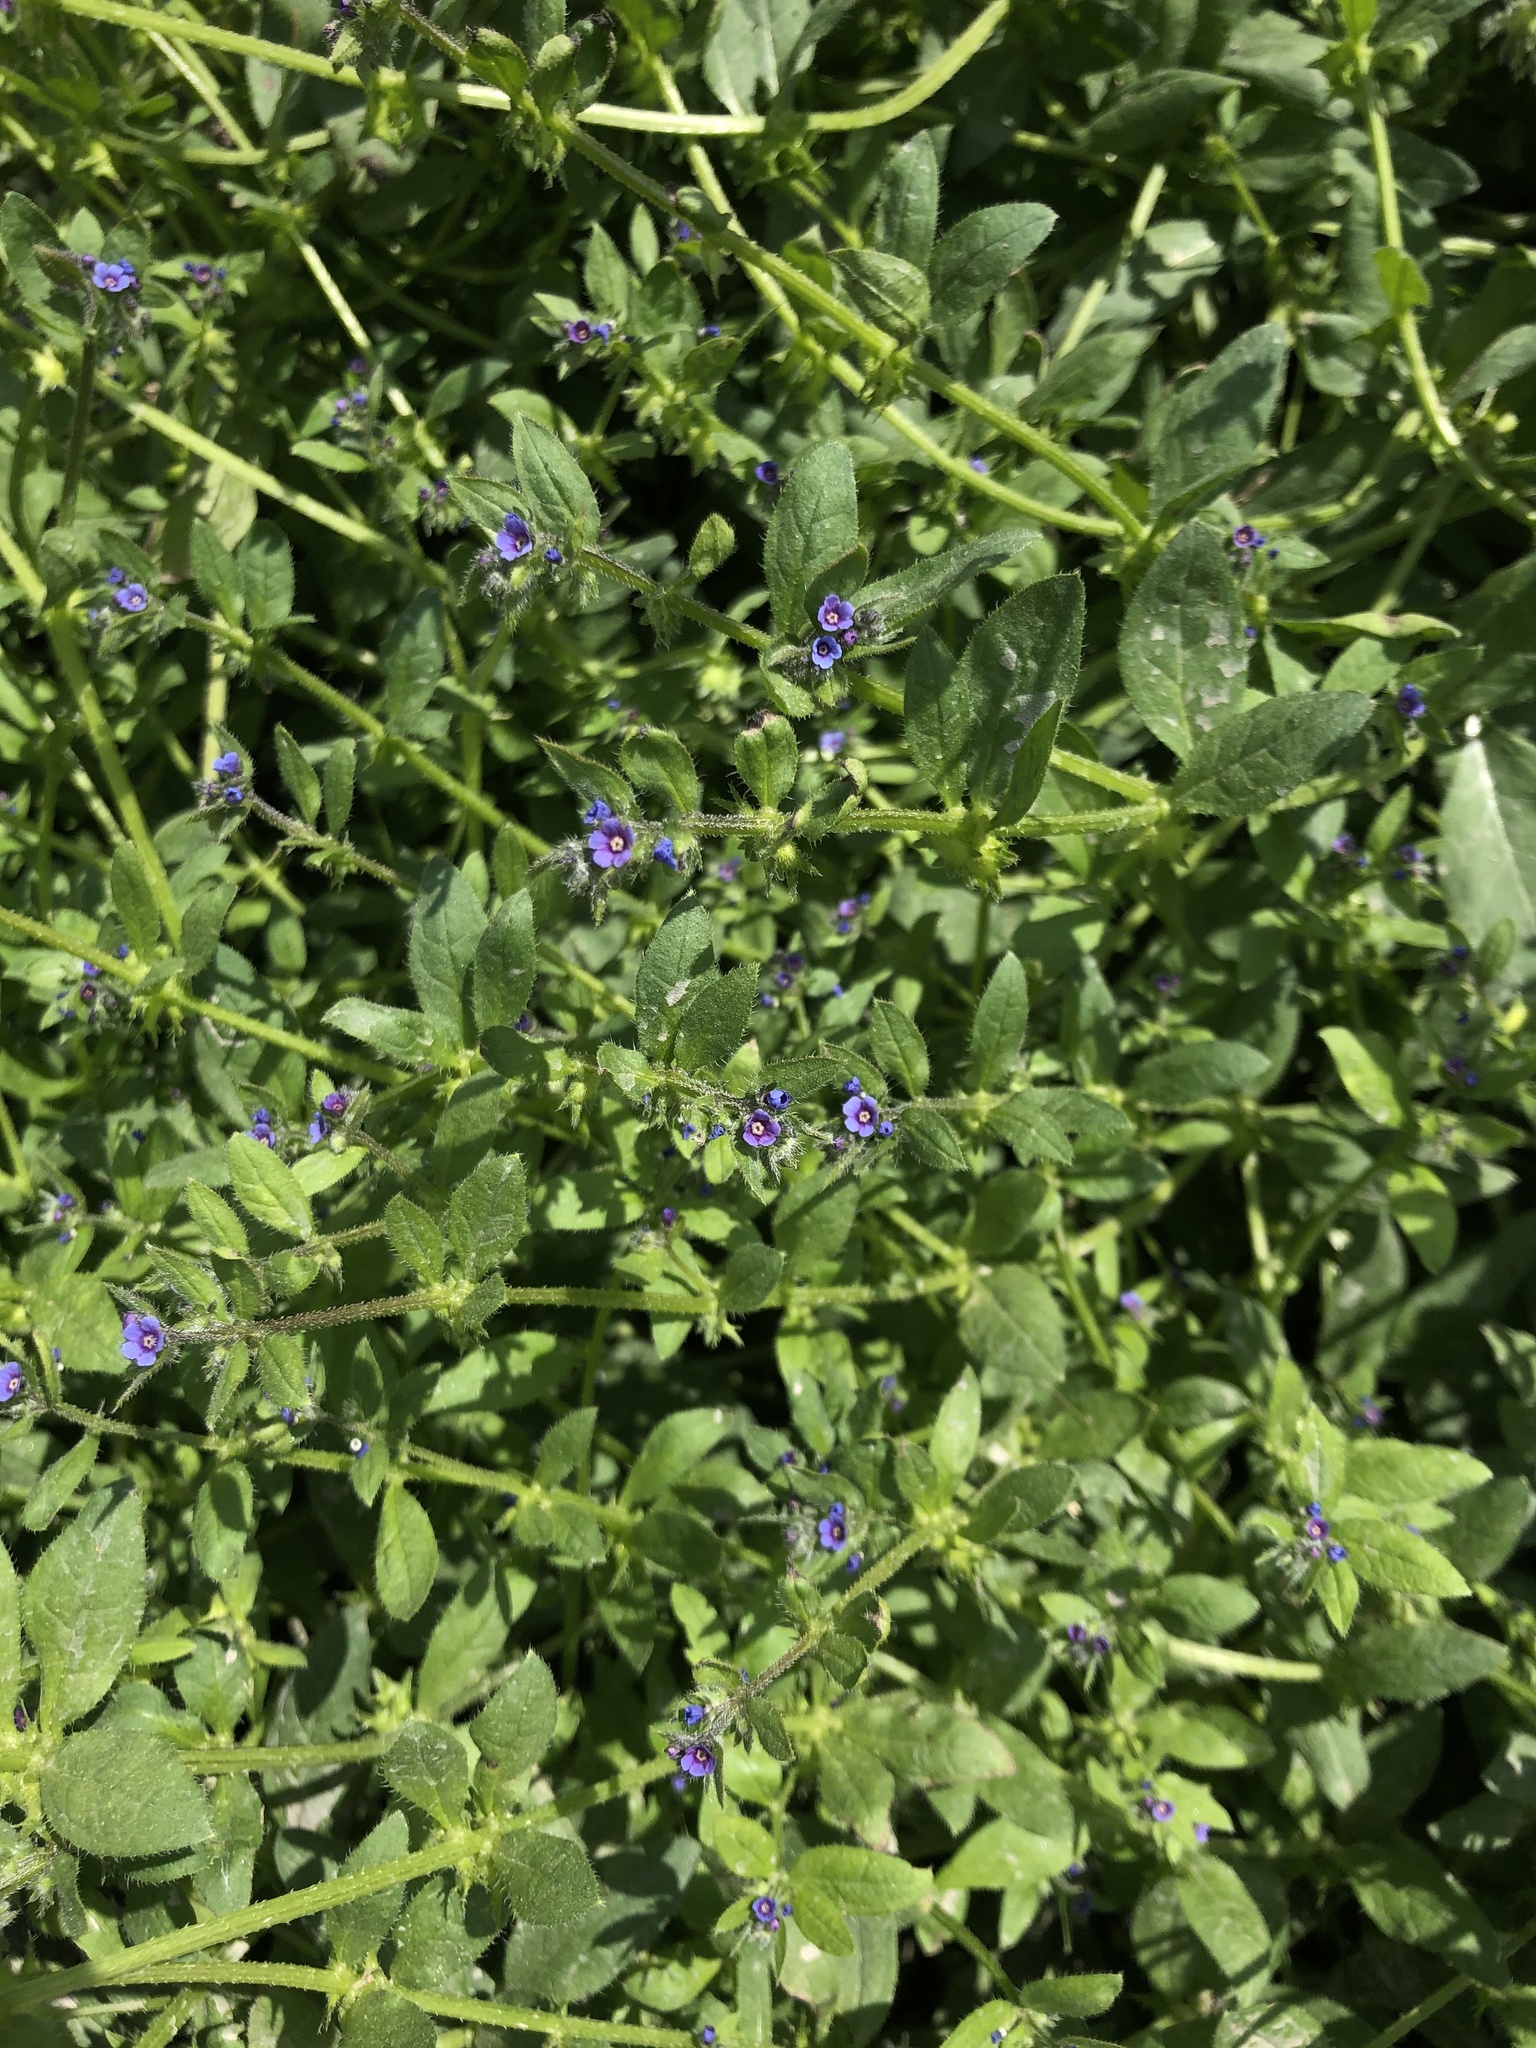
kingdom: Plantae
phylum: Tracheophyta
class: Magnoliopsida
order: Boraginales
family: Boraginaceae
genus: Asperugo
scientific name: Asperugo procumbens
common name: Madwort
